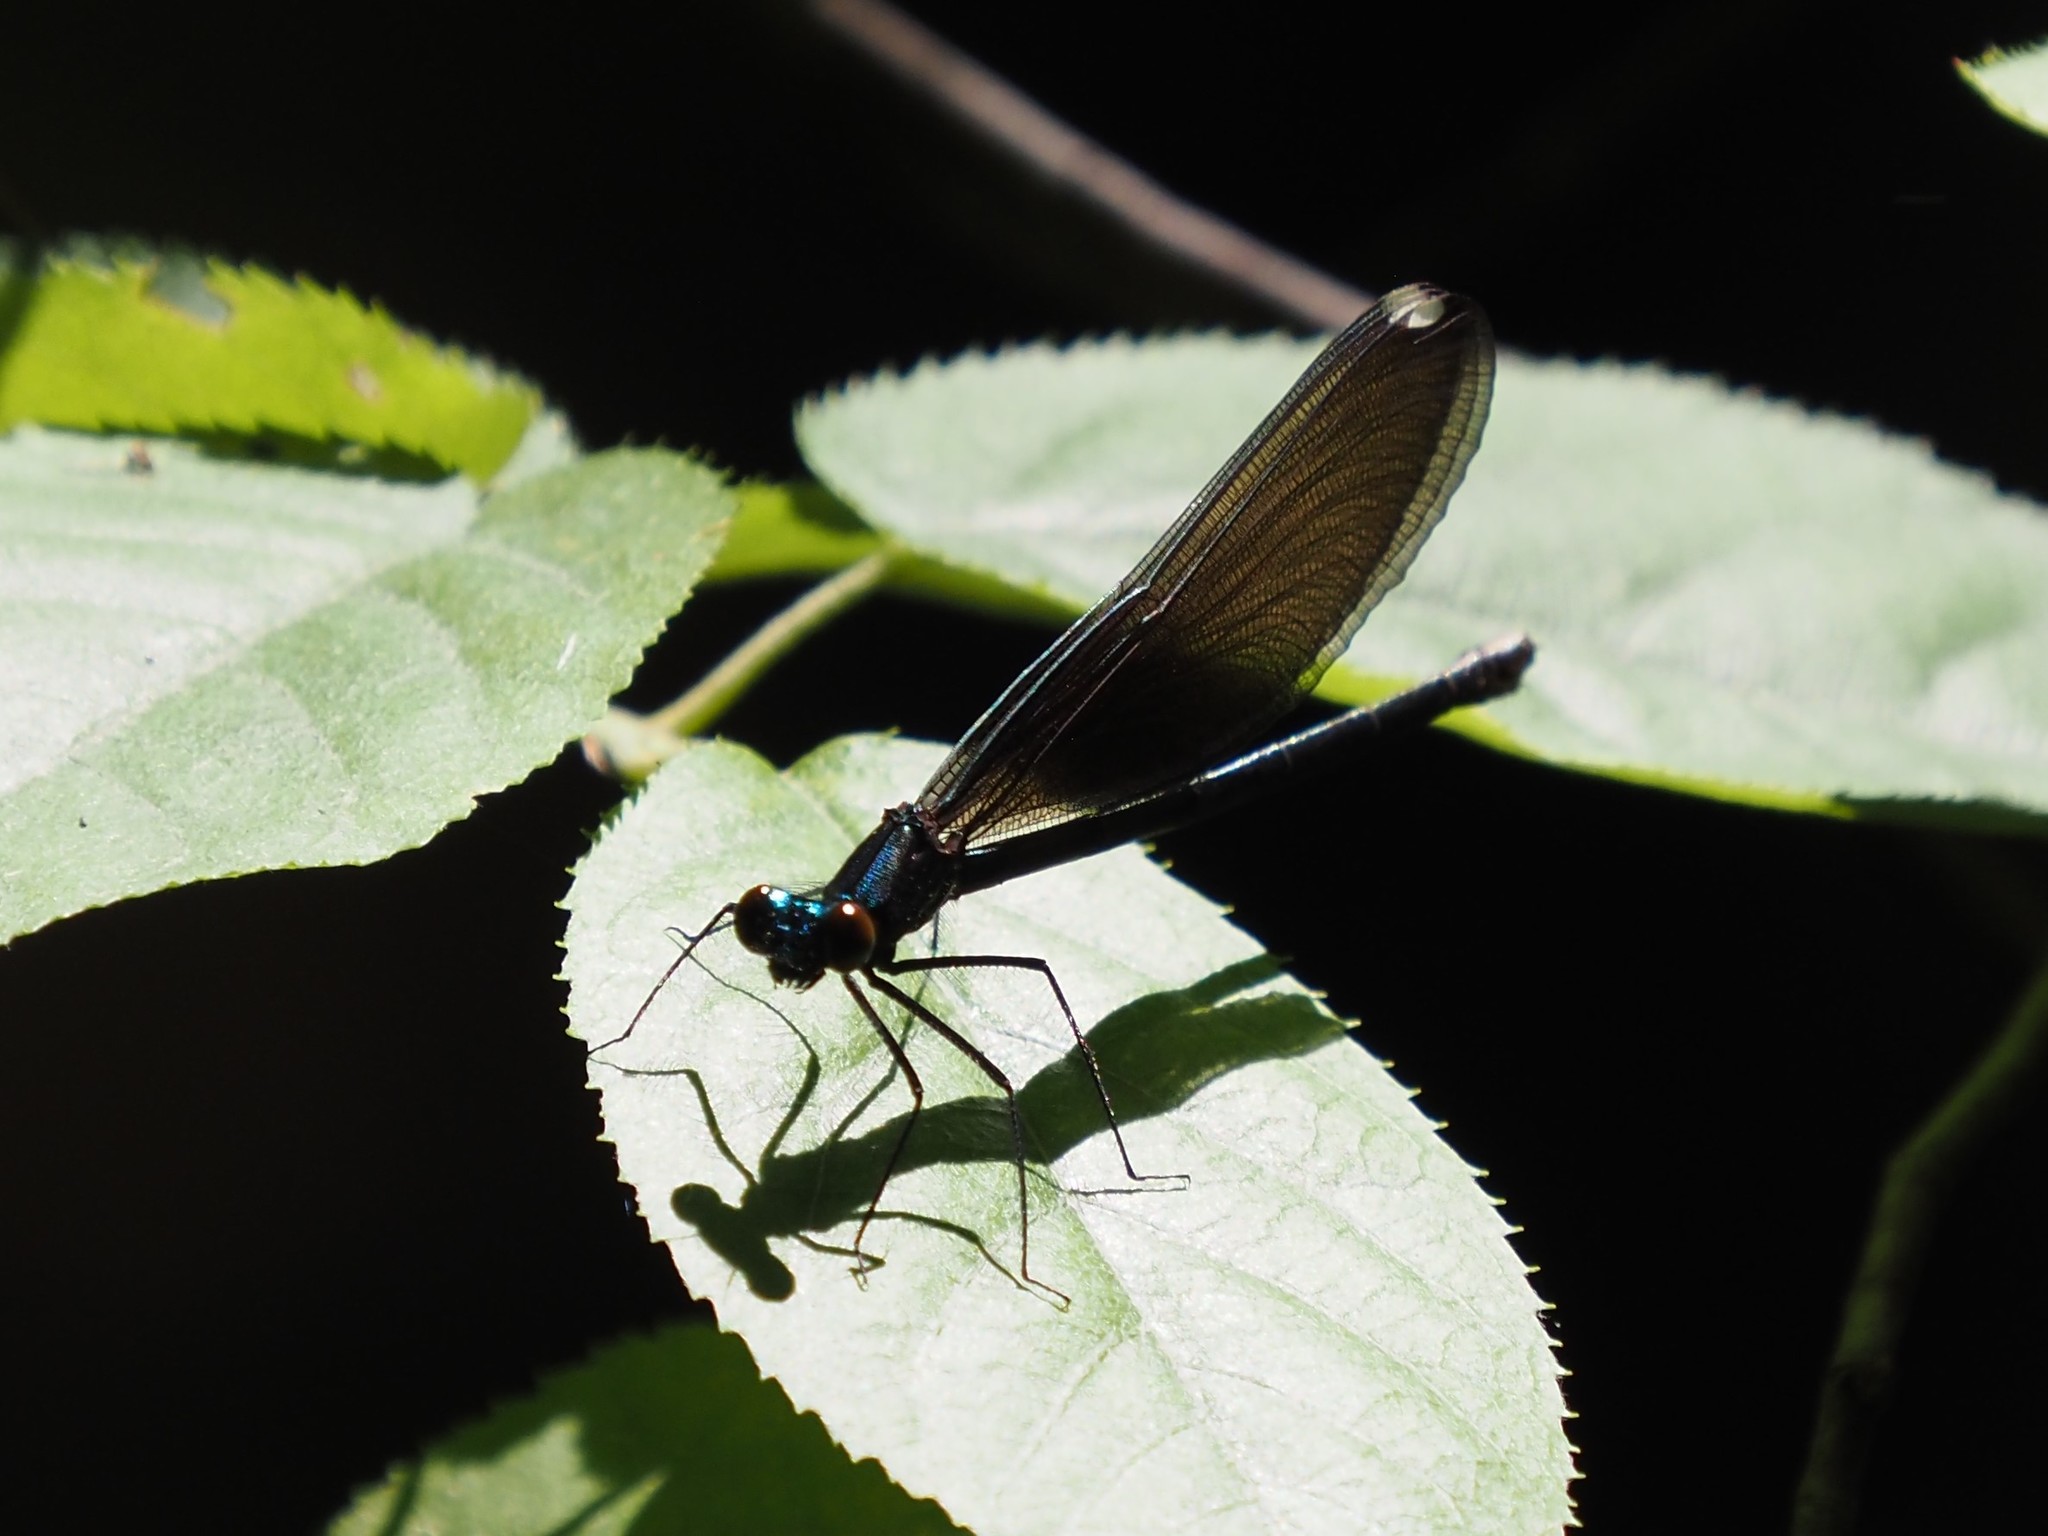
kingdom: Animalia
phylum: Arthropoda
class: Insecta
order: Odonata
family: Calopterygidae
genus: Calopteryx
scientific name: Calopteryx maculata
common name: Ebony jewelwing
